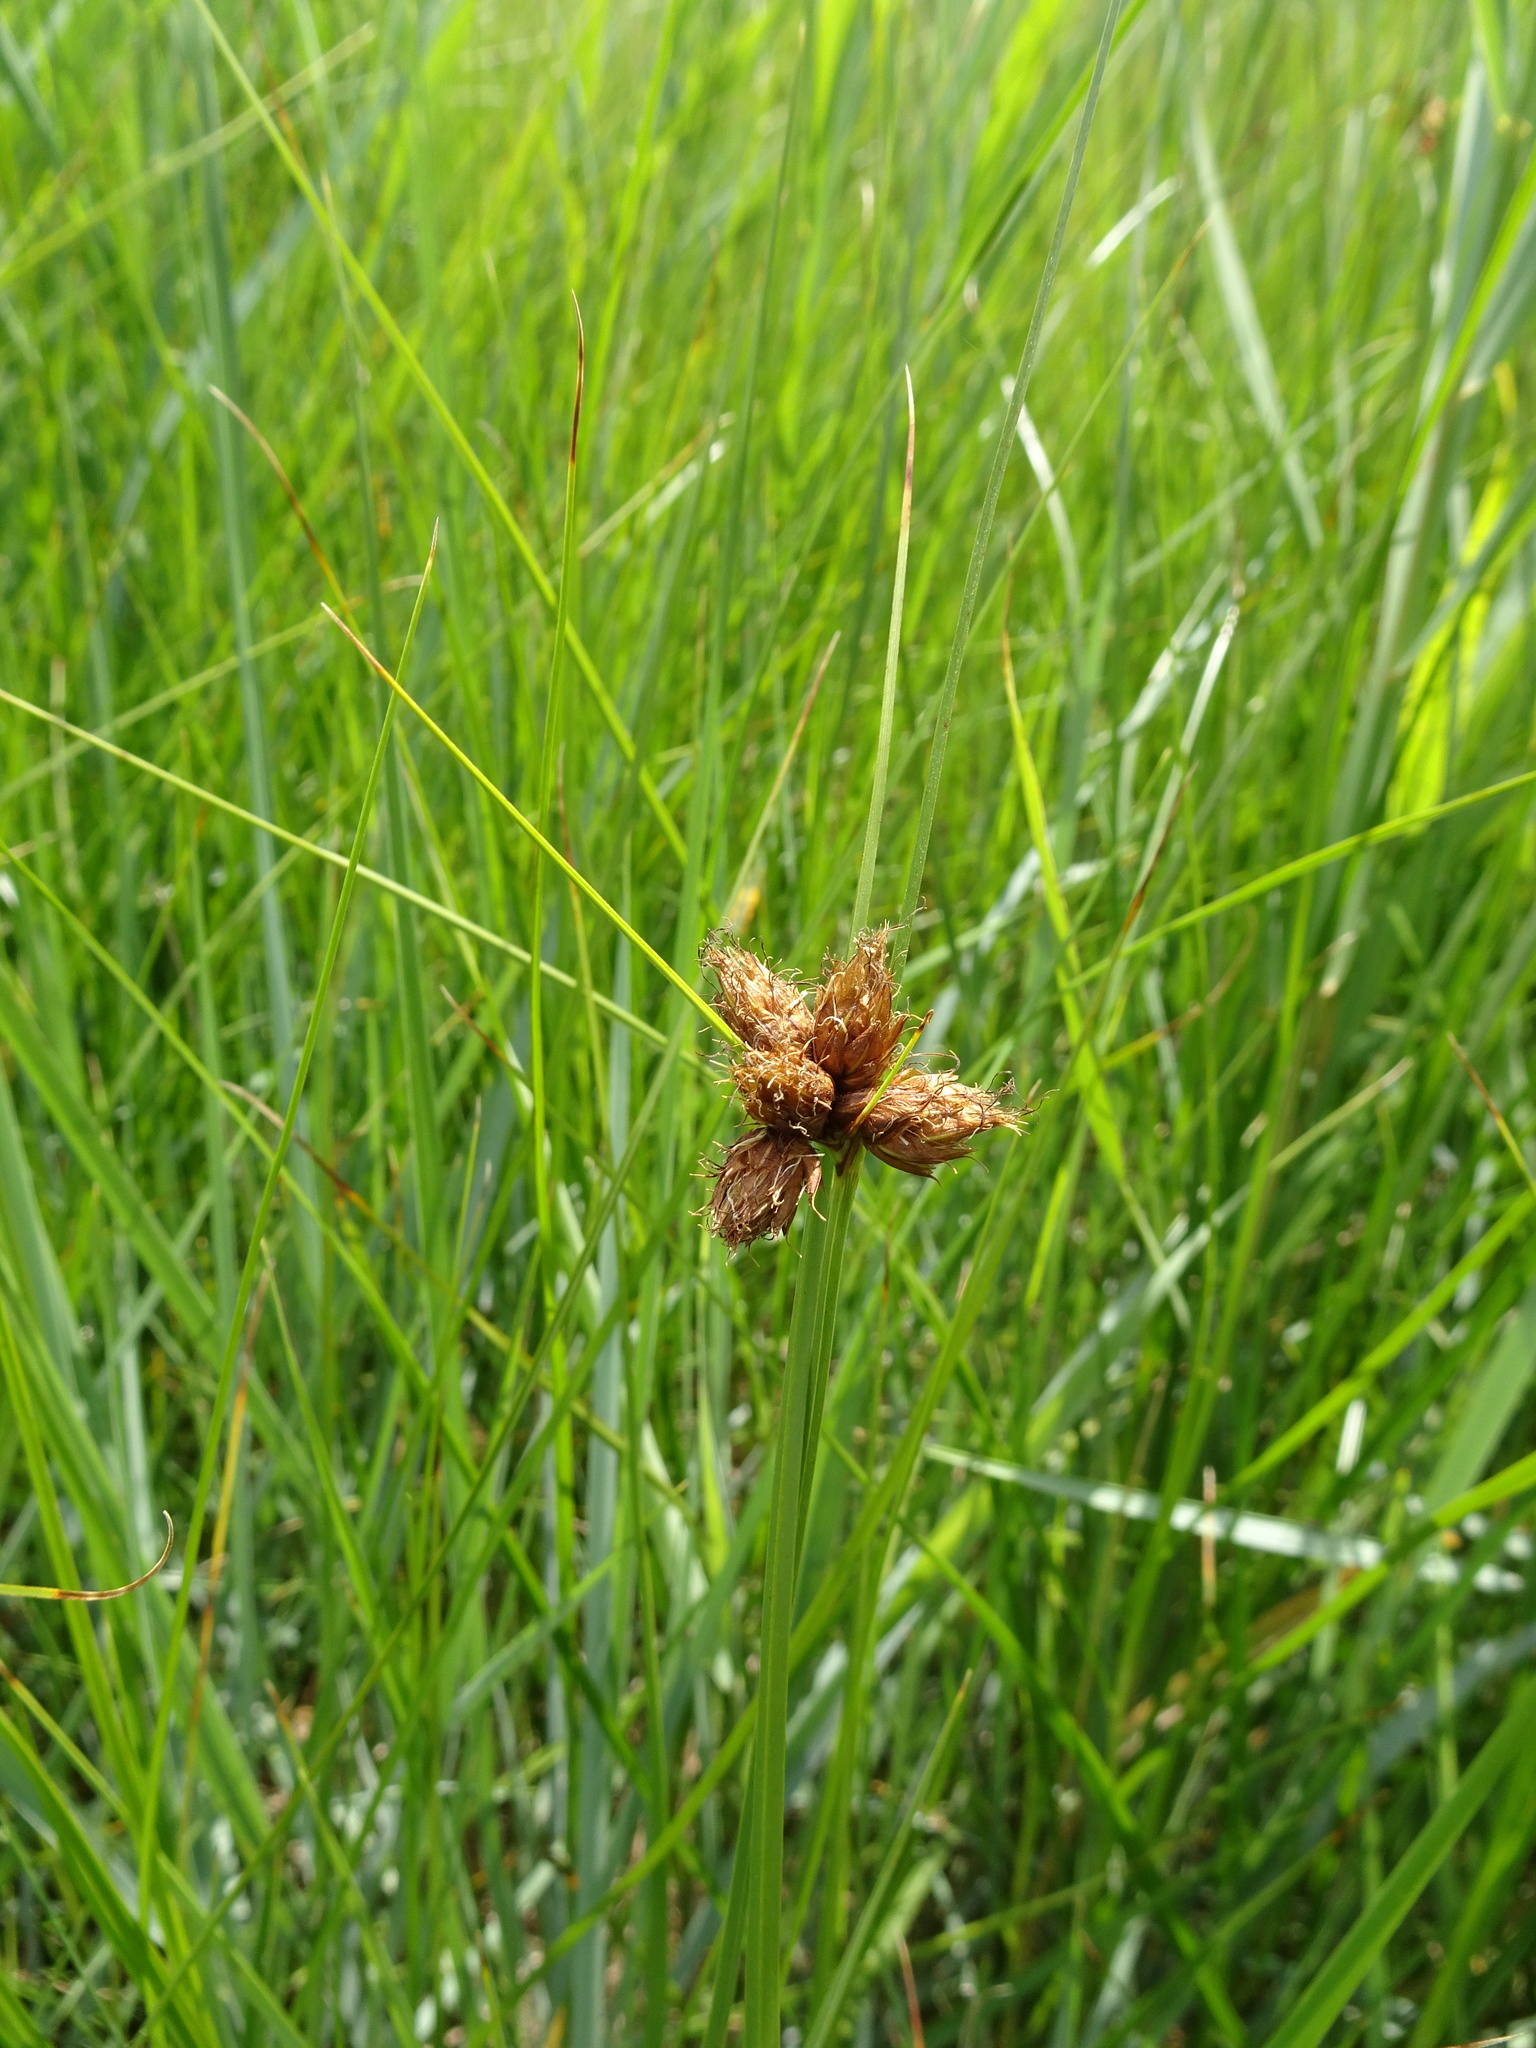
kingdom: Plantae
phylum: Tracheophyta
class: Liliopsida
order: Poales
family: Cyperaceae
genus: Bolboschoenus
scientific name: Bolboschoenus maritimus
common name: Sea club-rush
